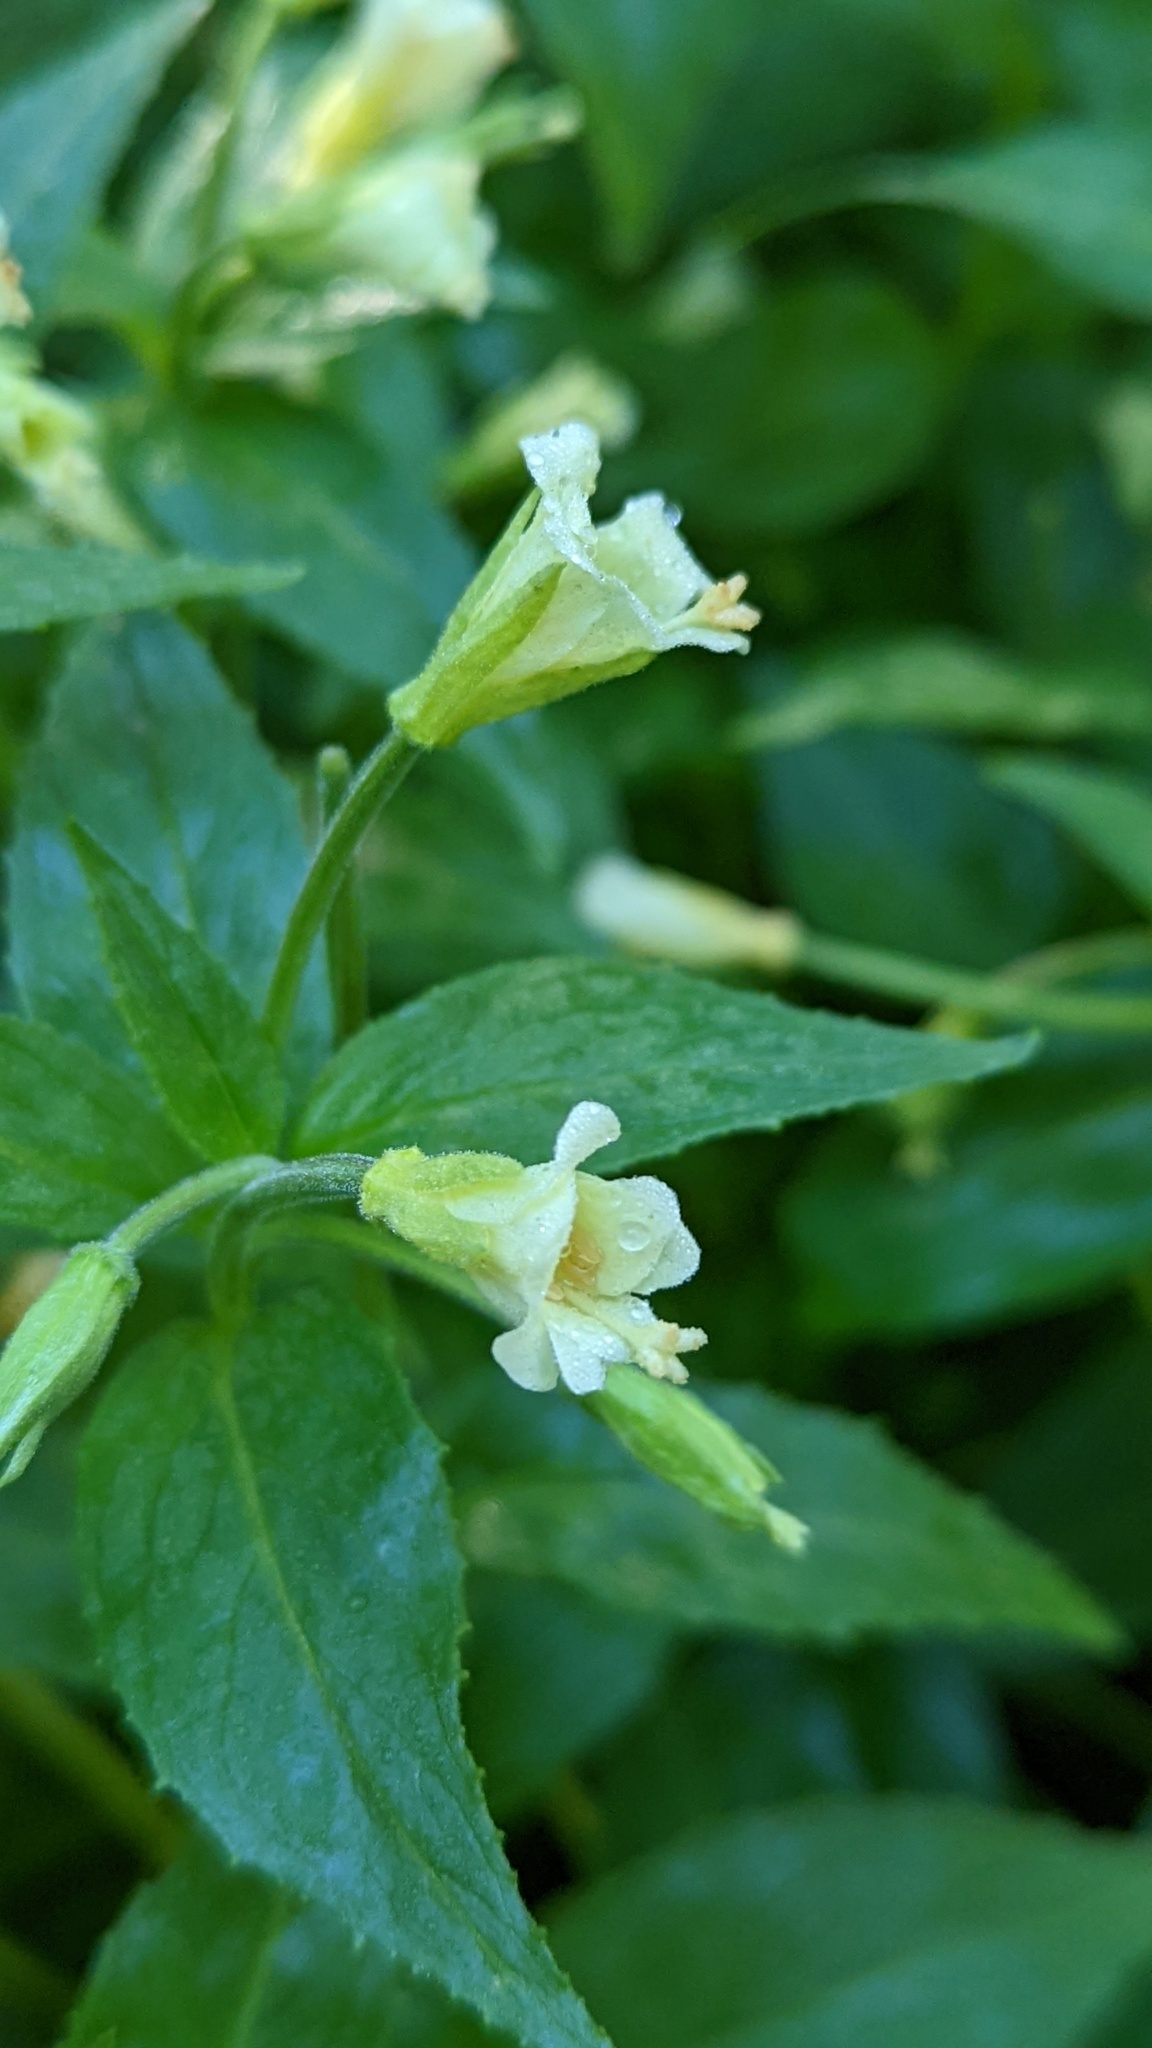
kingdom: Plantae
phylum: Tracheophyta
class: Magnoliopsida
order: Myrtales
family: Onagraceae
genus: Epilobium
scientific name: Epilobium luteum
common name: Yellow willowherb
